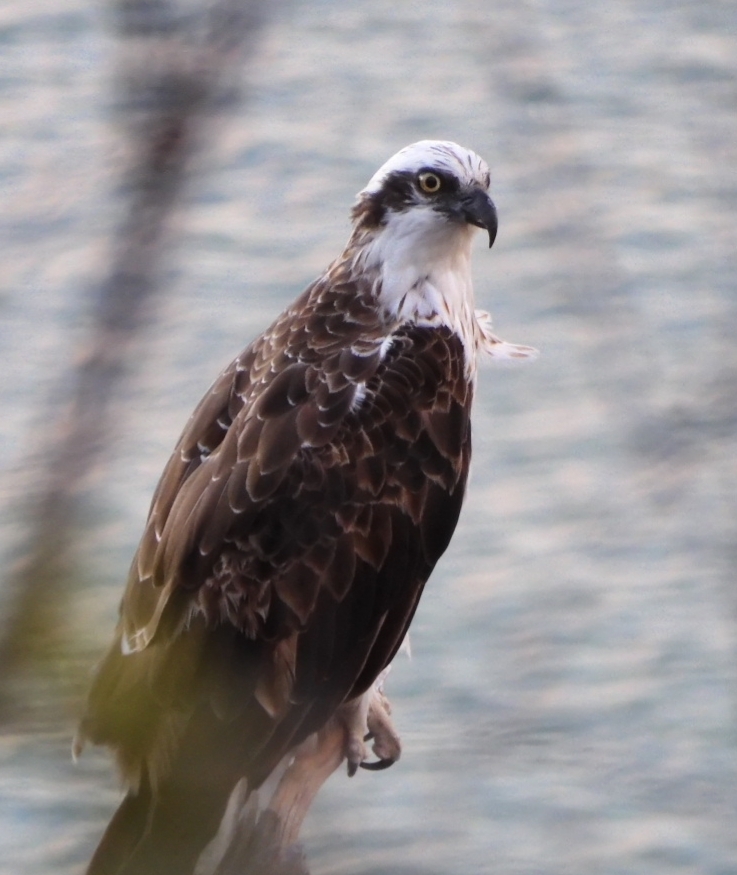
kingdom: Animalia
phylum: Chordata
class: Aves
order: Accipitriformes
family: Pandionidae
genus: Pandion
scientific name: Pandion cristatus
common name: Eastern osprey
